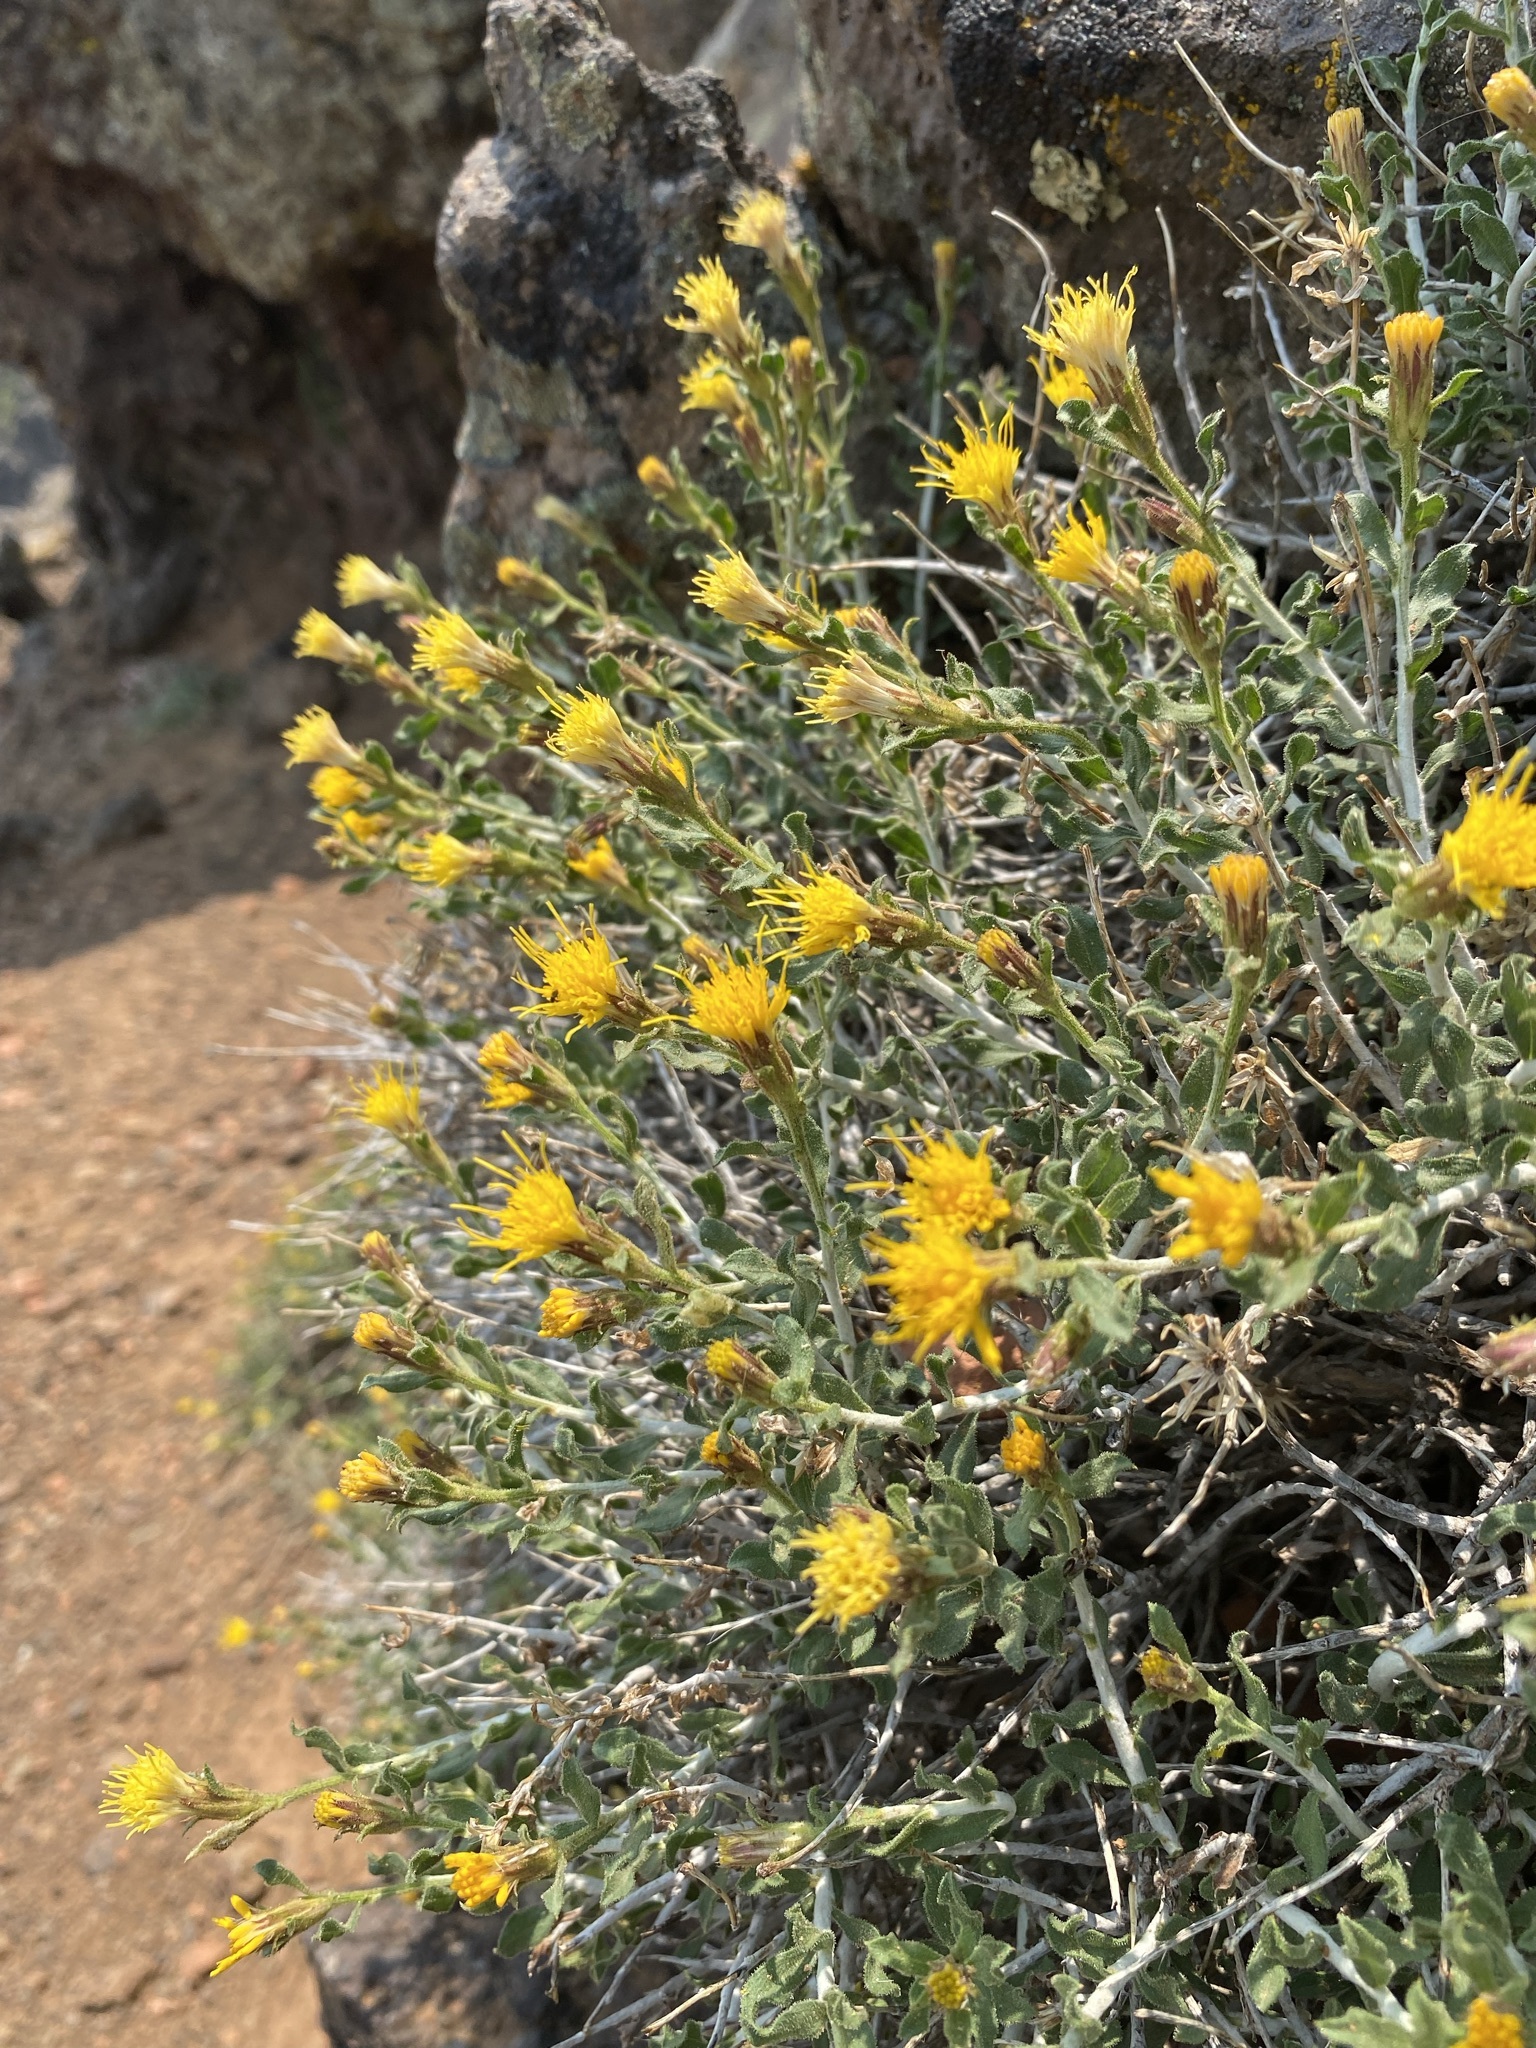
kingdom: Plantae
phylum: Tracheophyta
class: Magnoliopsida
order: Asterales
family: Asteraceae
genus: Ericameria
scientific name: Ericameria discoidea
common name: Sharp-scale goldenweed
